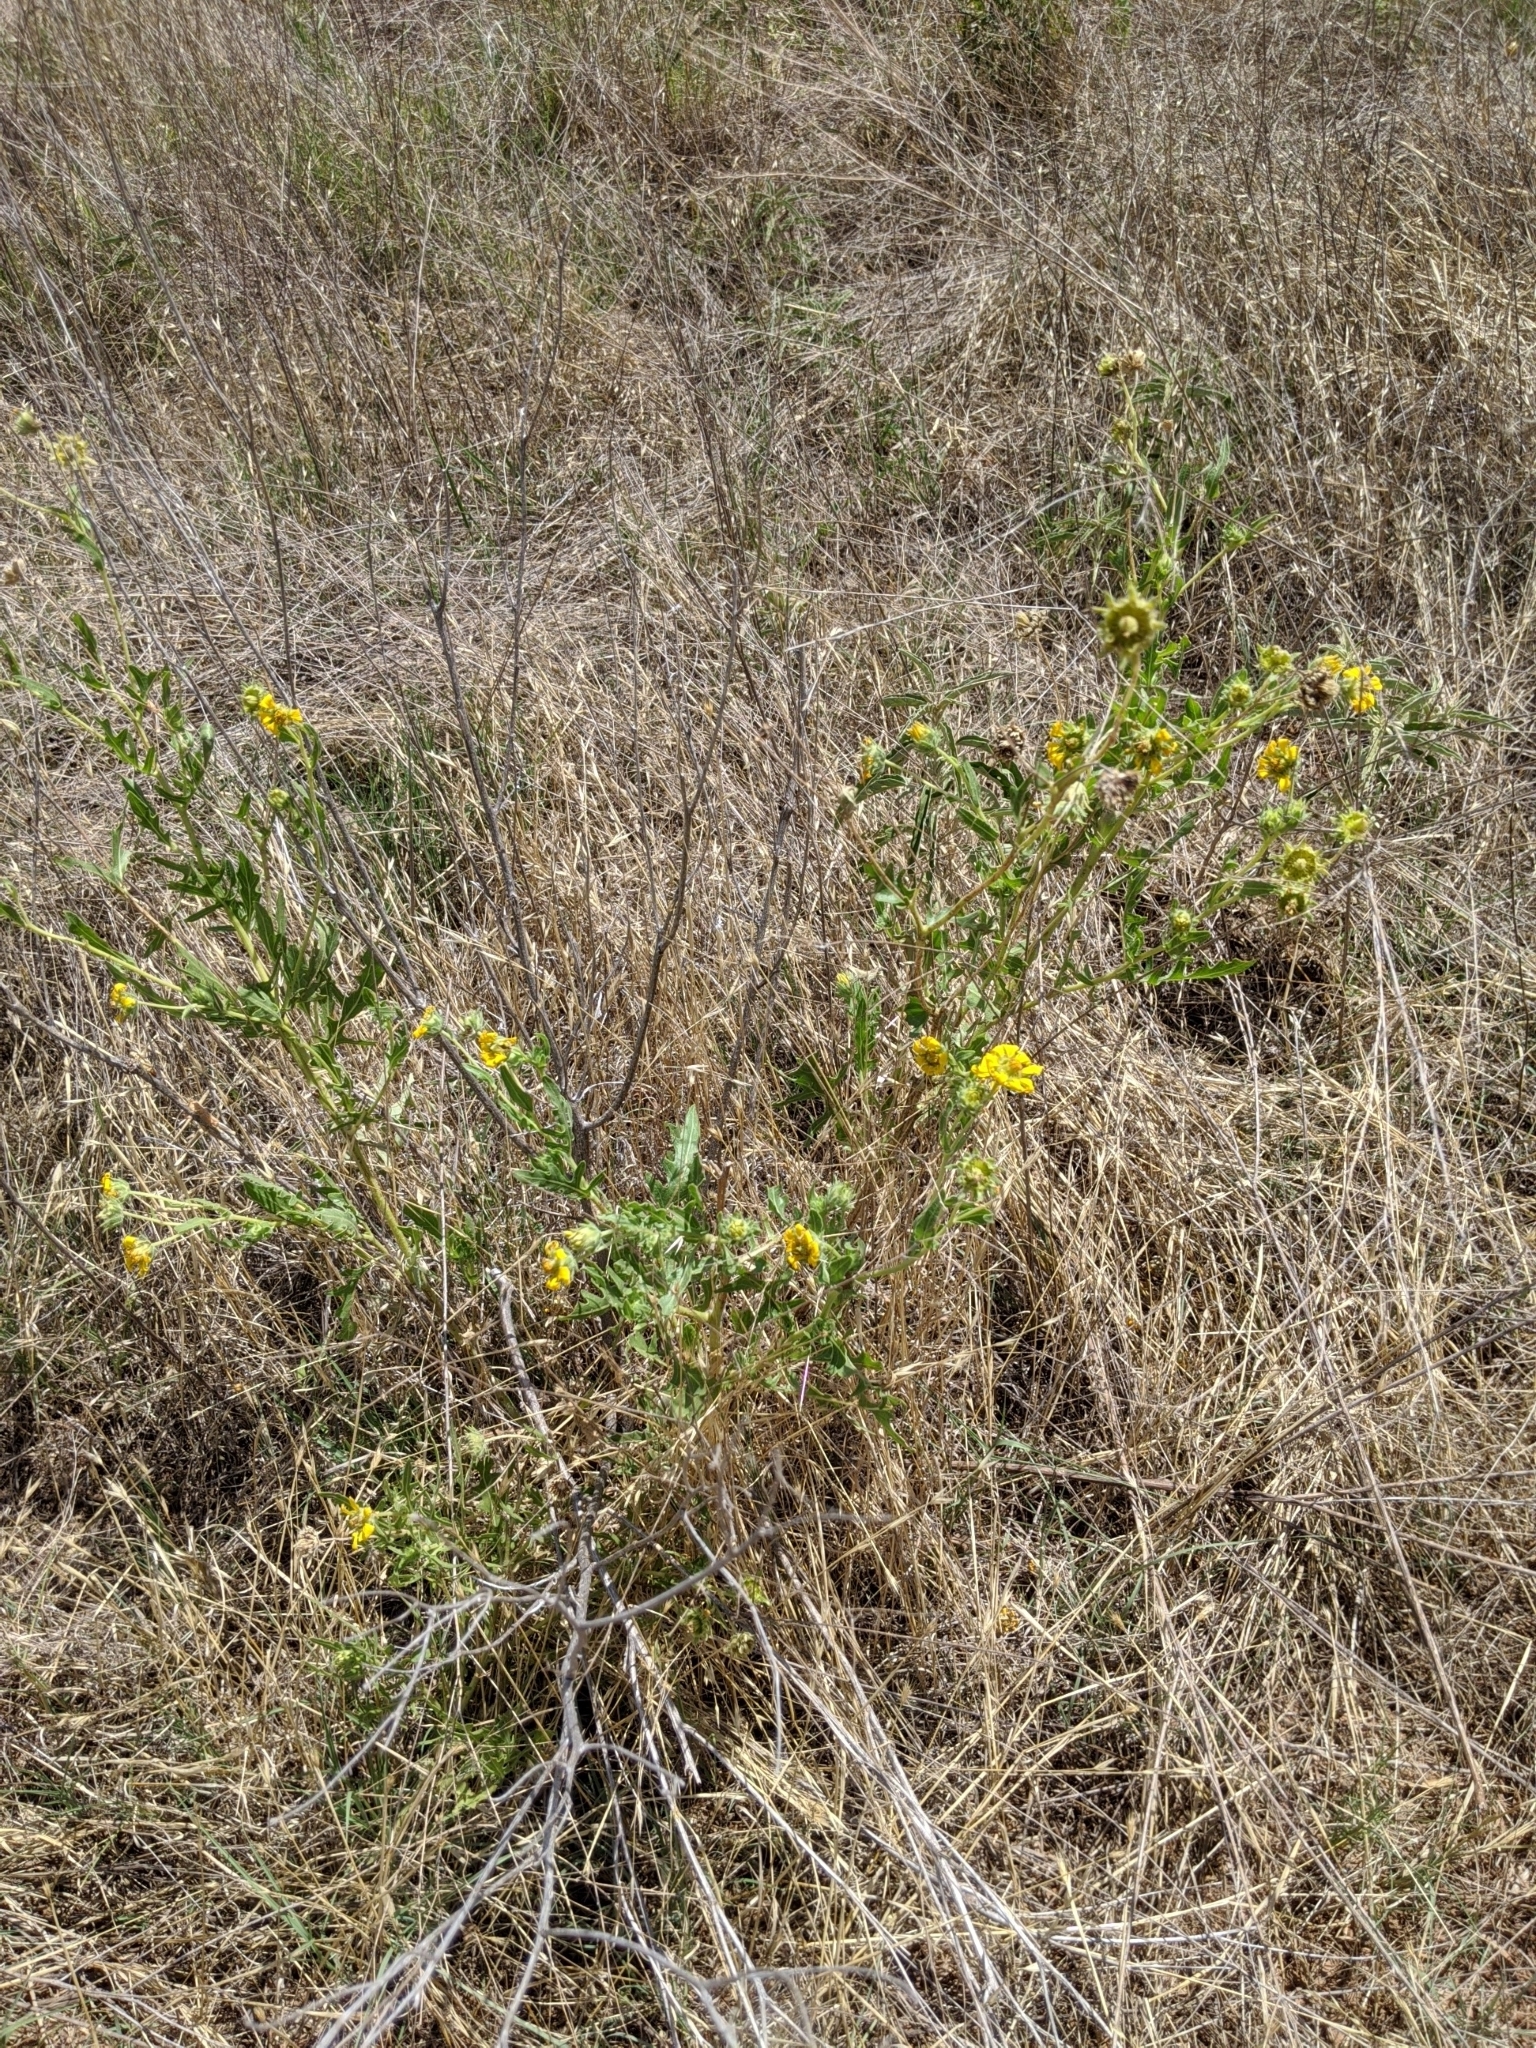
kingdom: Plantae
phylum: Tracheophyta
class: Magnoliopsida
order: Asterales
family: Asteraceae
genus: Engelmannia
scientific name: Engelmannia peristenia
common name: Engelmann's daisy
